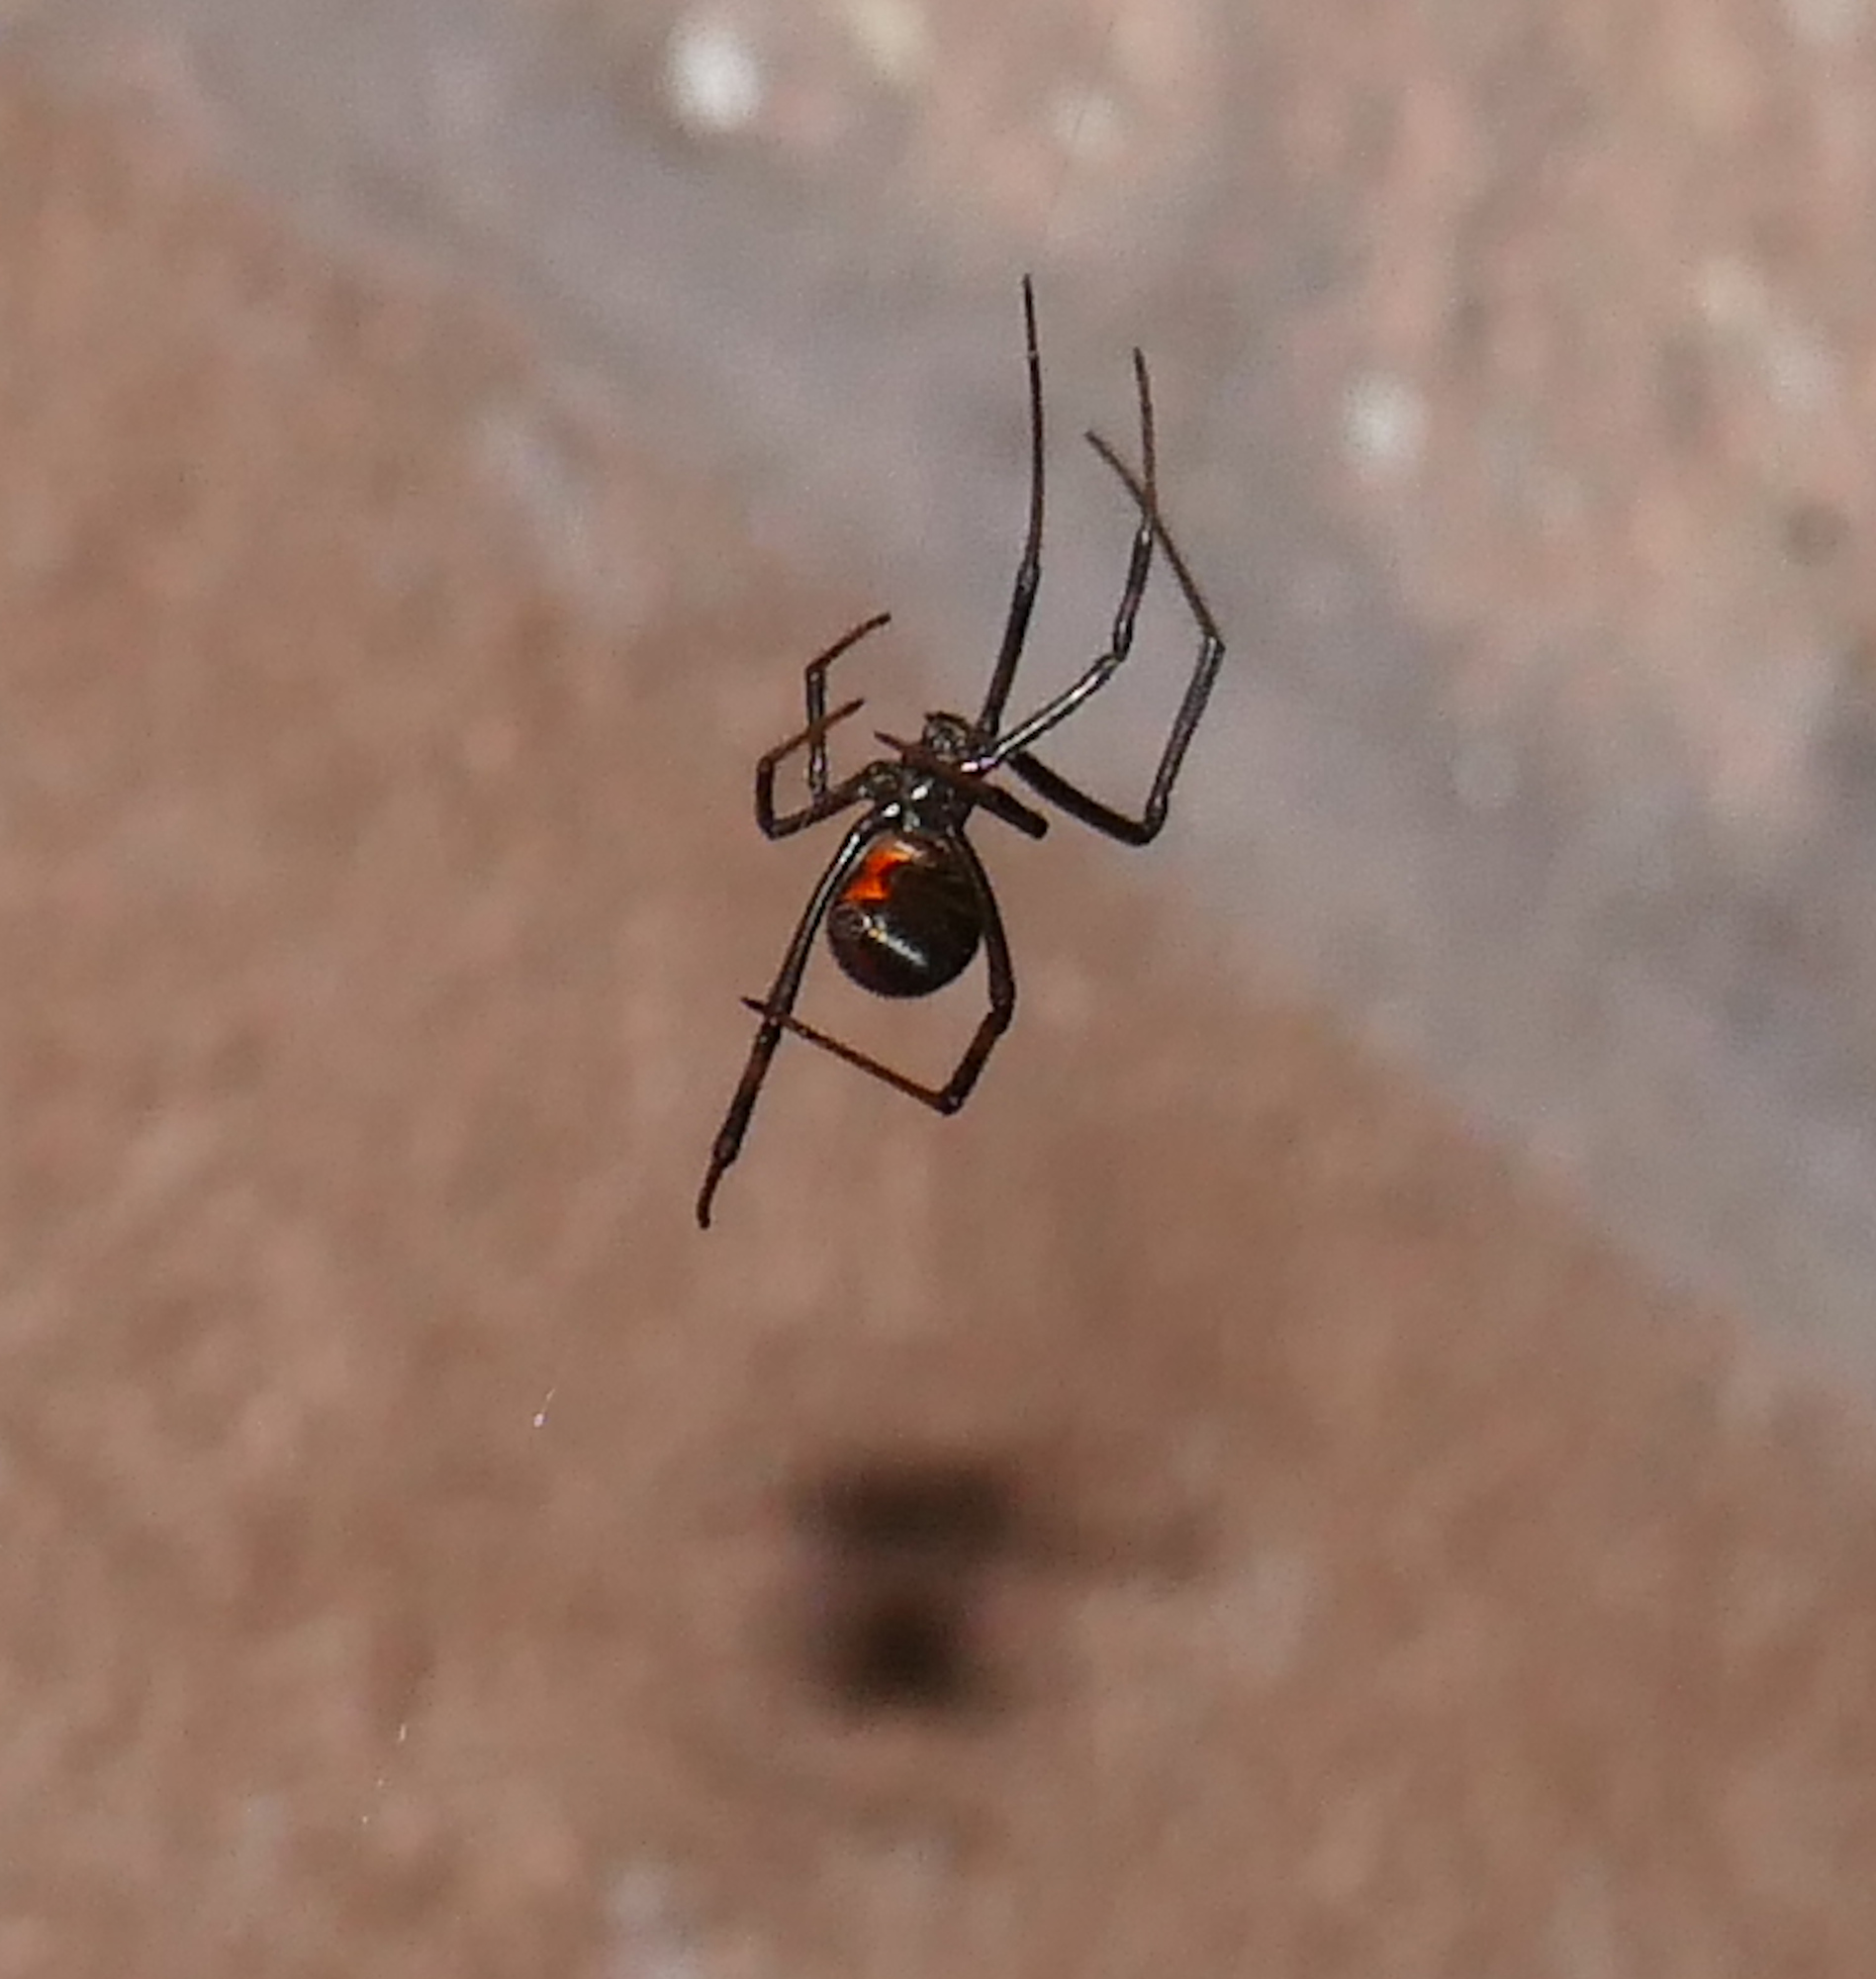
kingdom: Animalia
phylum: Arthropoda
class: Arachnida
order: Araneae
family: Theridiidae
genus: Latrodectus
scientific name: Latrodectus hesperus
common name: Western black widow
